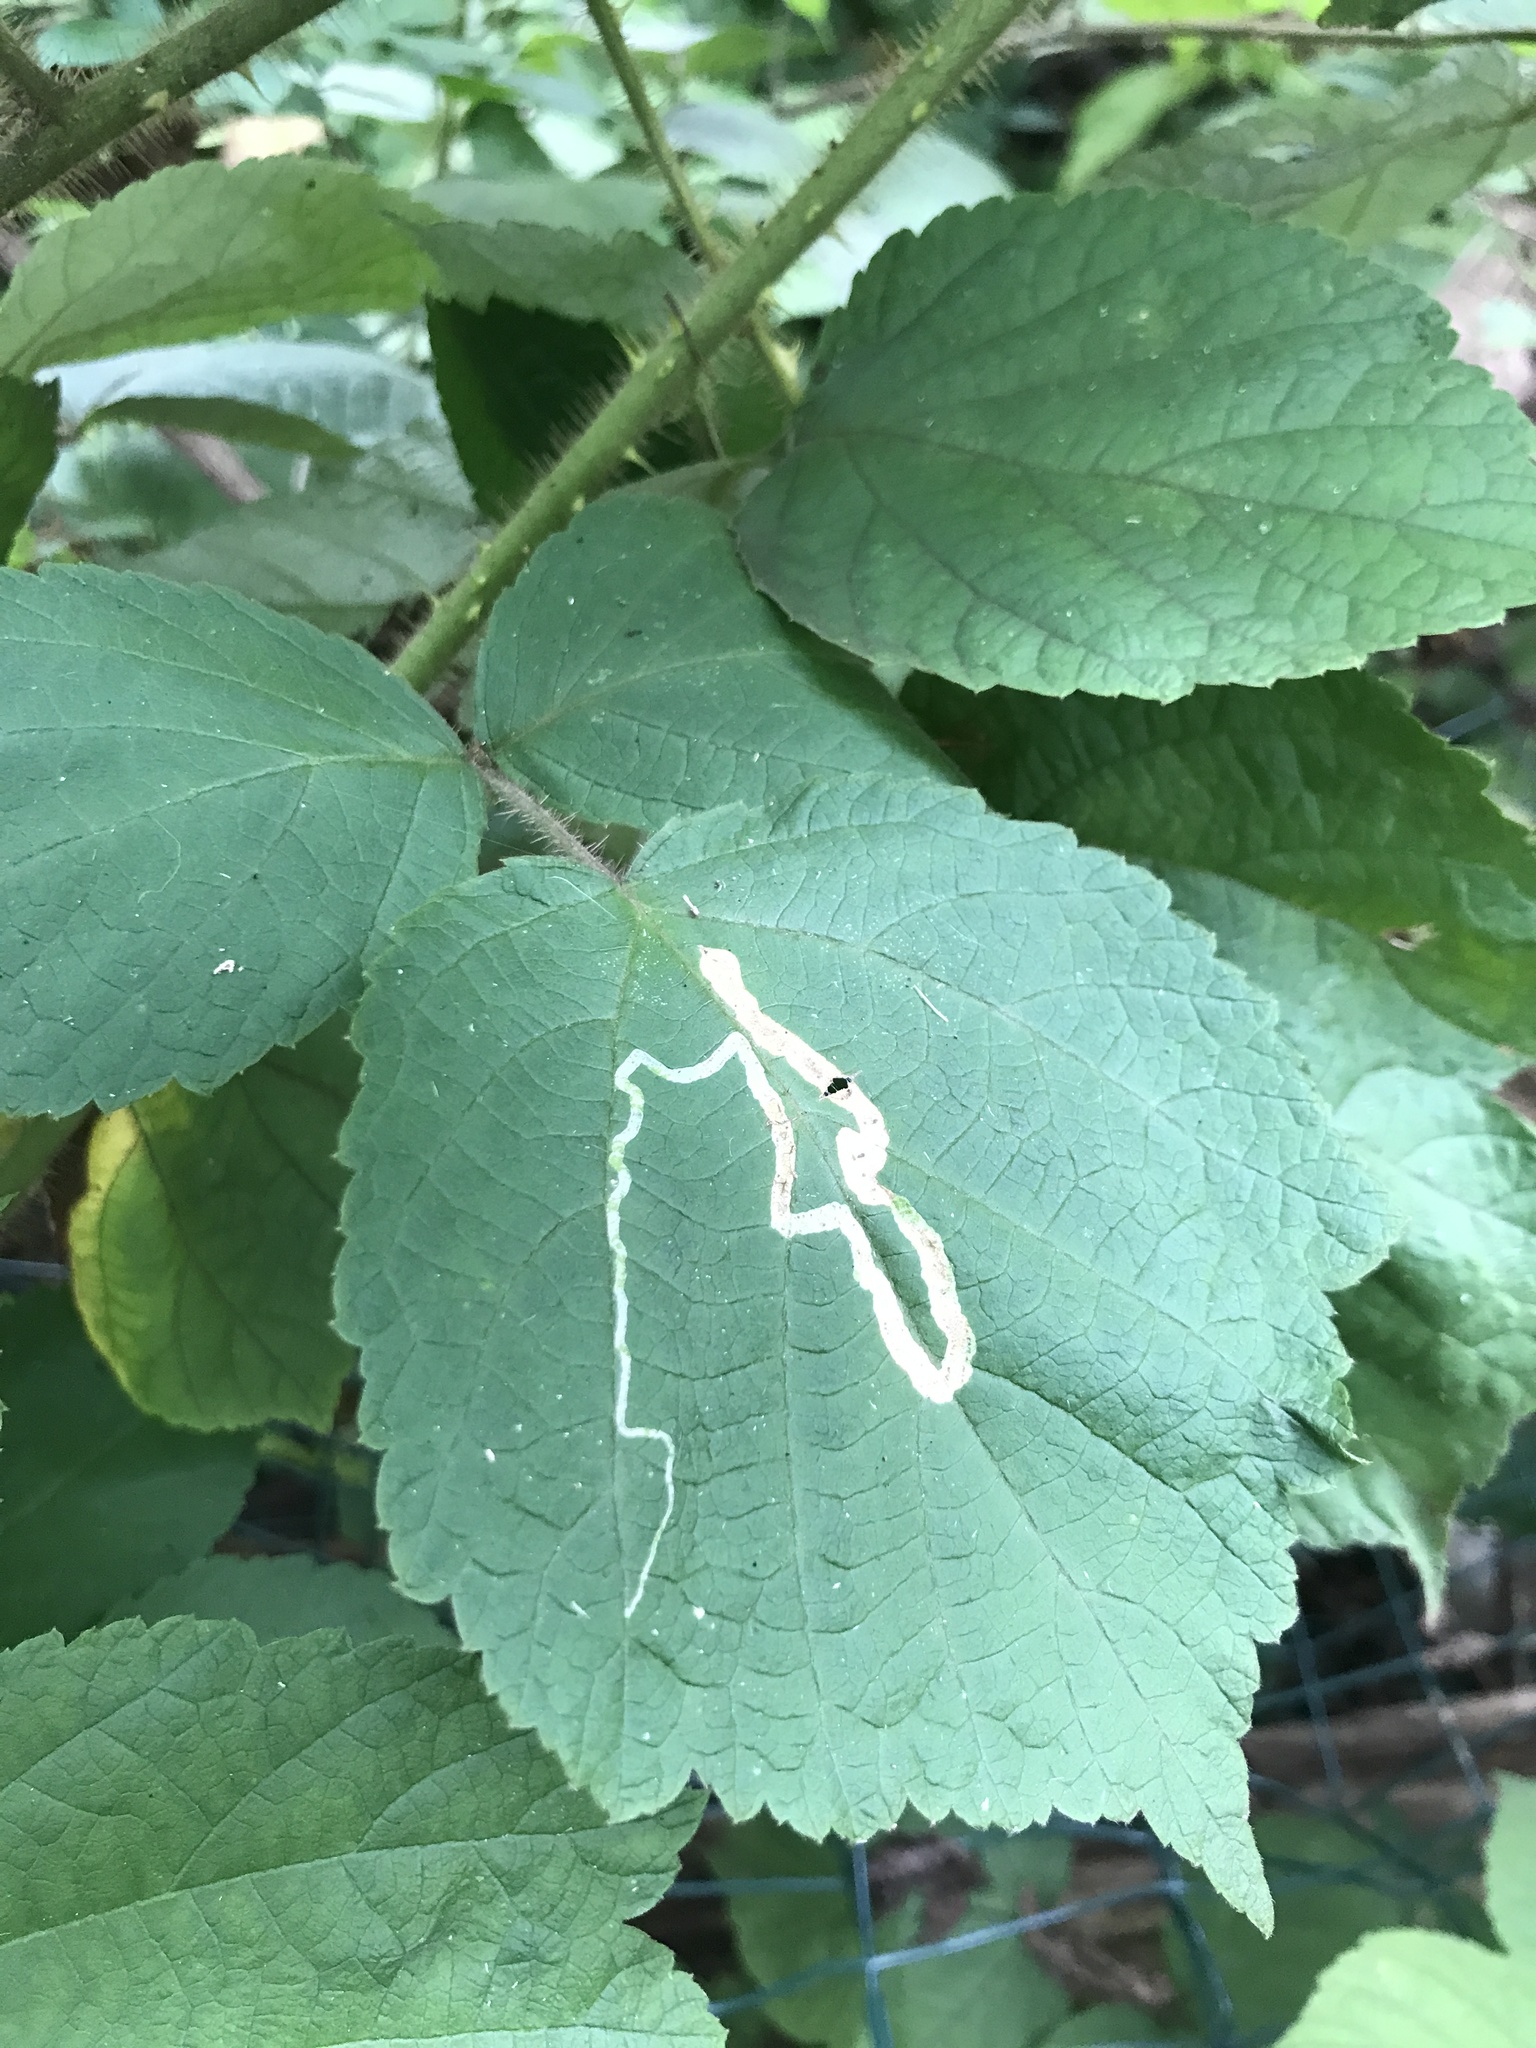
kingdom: Animalia
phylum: Arthropoda
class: Insecta
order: Diptera
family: Agromyzidae
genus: Agromyza
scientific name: Agromyza vockerothi
